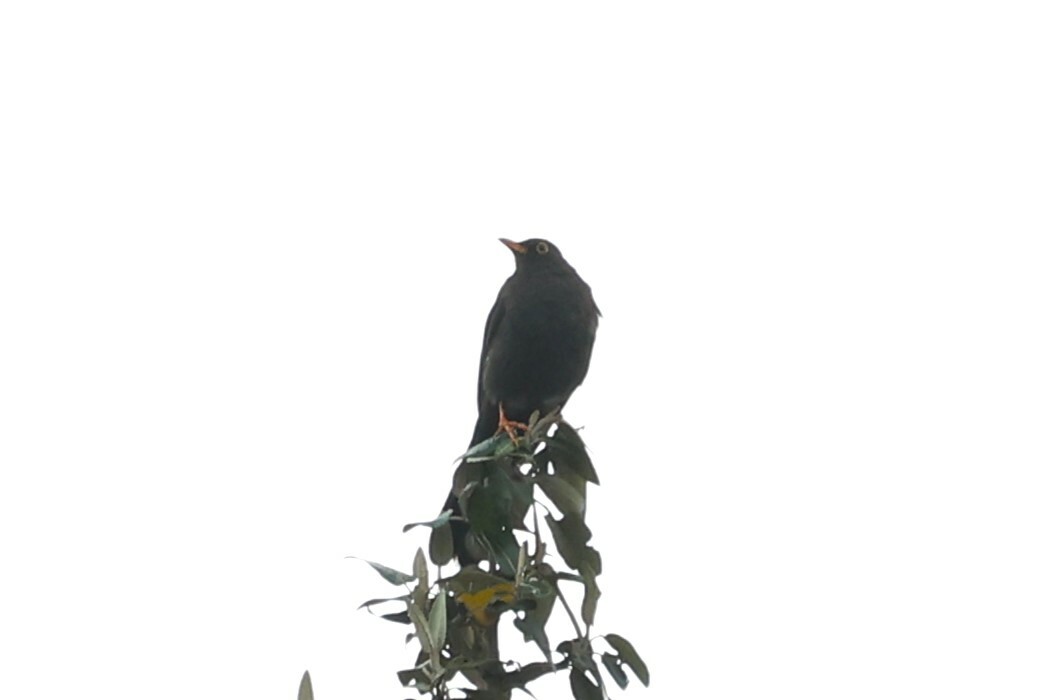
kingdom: Animalia
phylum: Chordata
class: Aves
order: Passeriformes
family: Turdidae
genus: Turdus
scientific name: Turdus fuscater
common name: Great thrush
